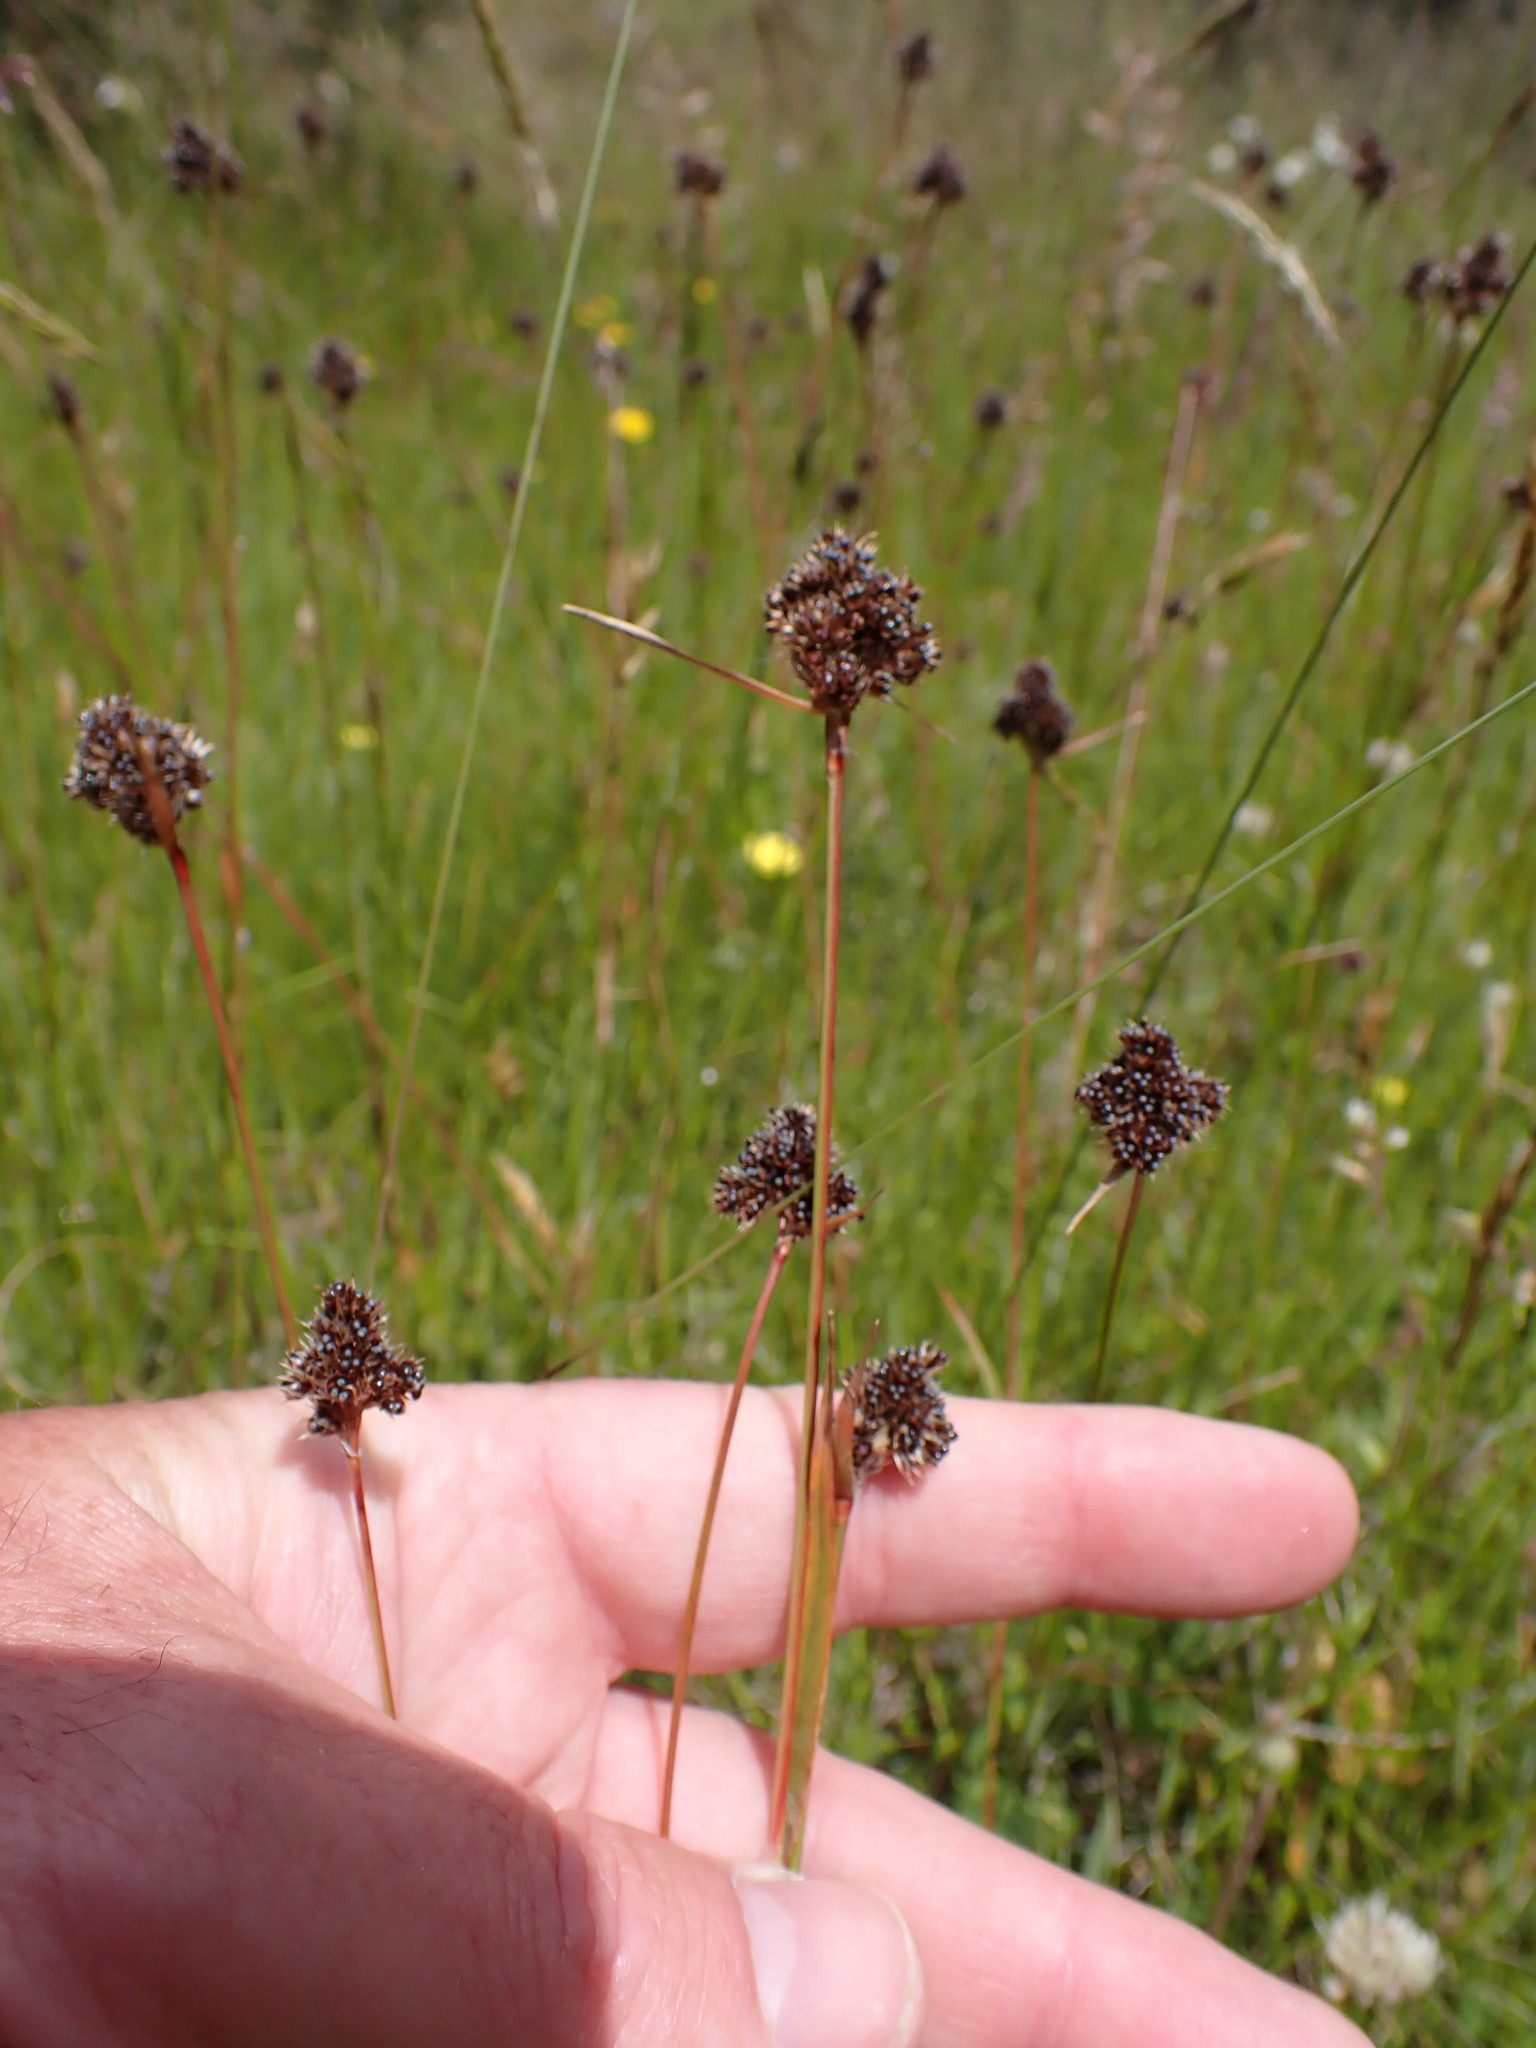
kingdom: Plantae
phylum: Tracheophyta
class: Liliopsida
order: Poales
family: Juncaceae
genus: Luzula
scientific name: Luzula congesta
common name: Heath woodrush
